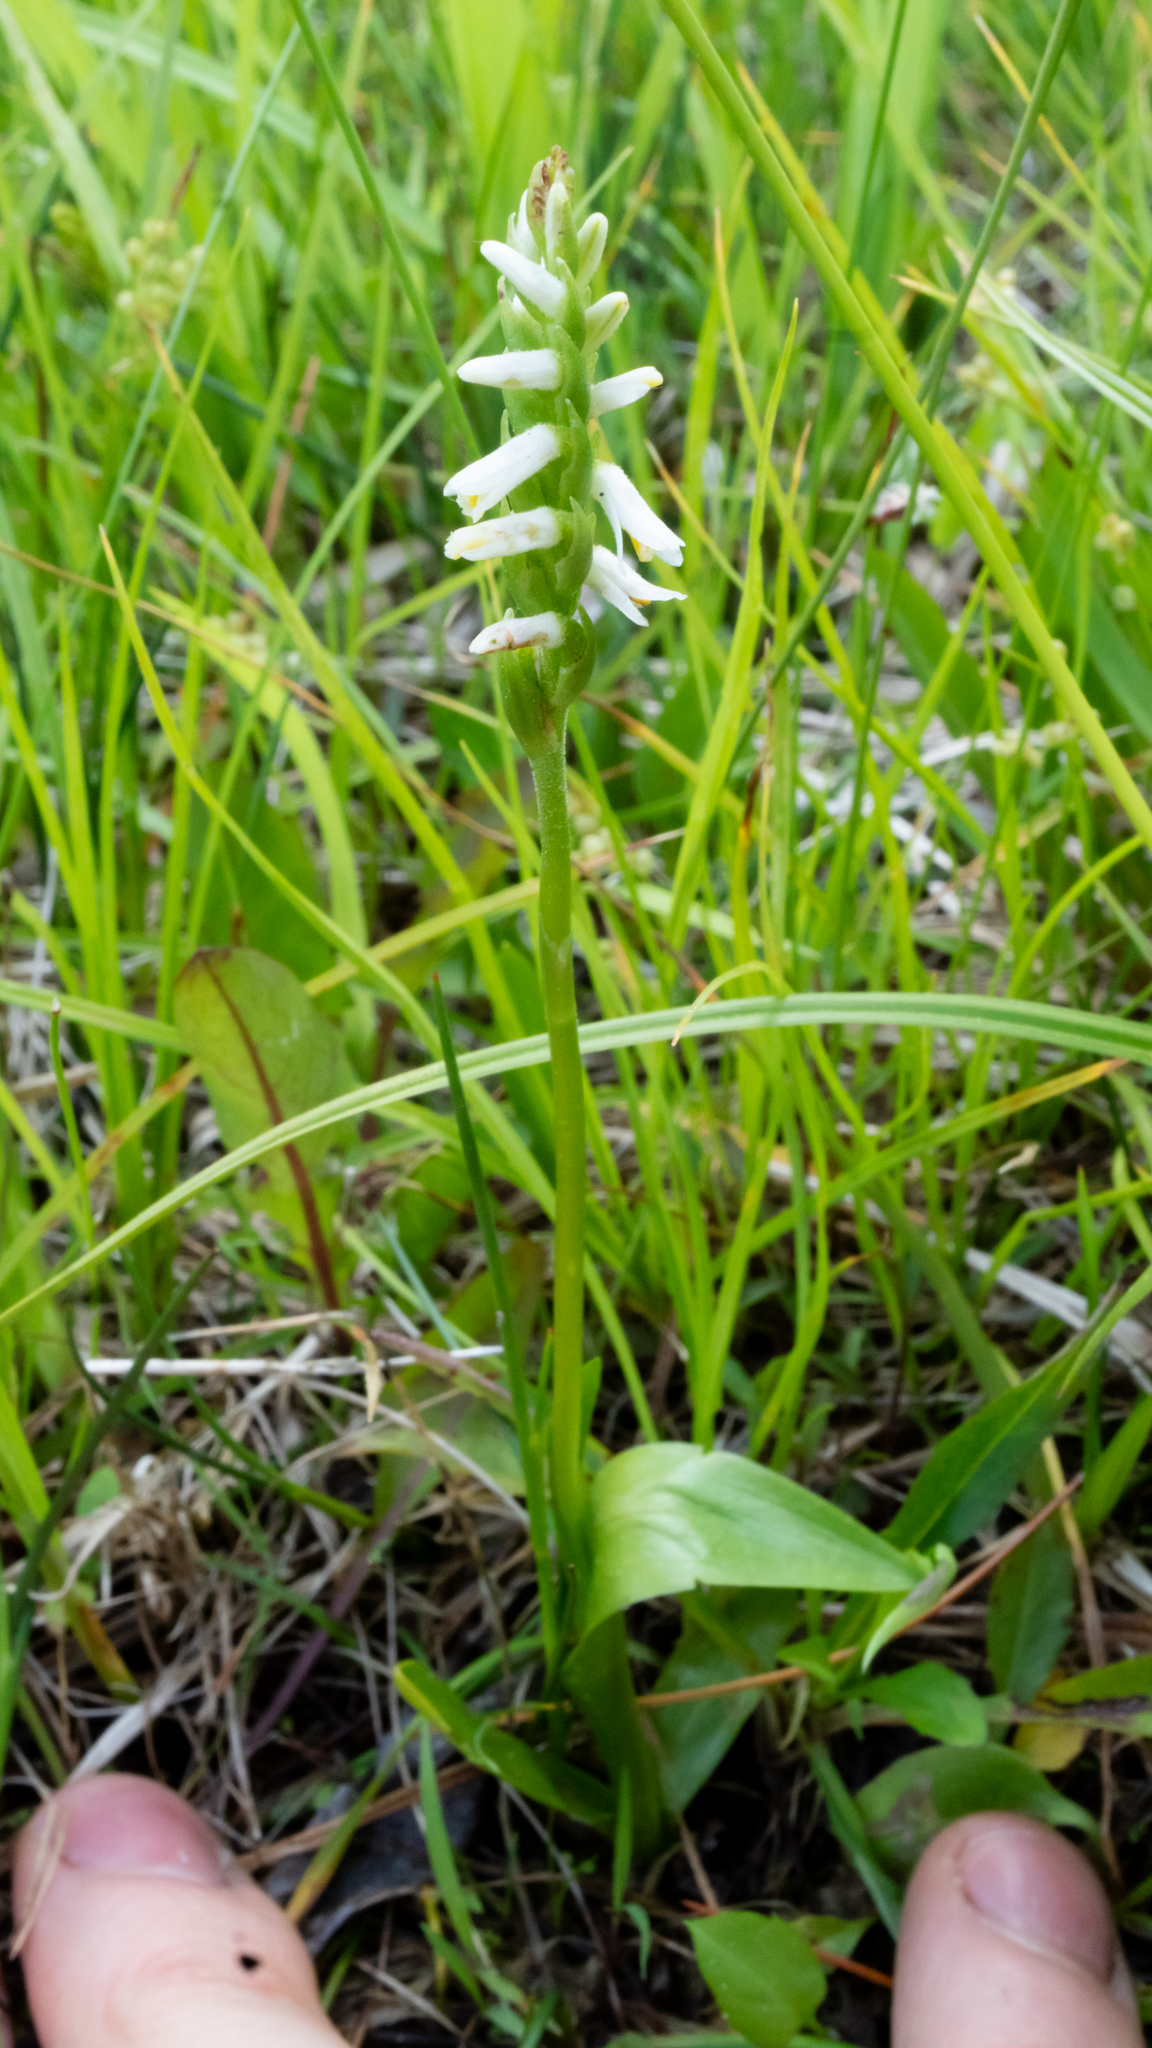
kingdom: Plantae
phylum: Tracheophyta
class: Liliopsida
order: Asparagales
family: Orchidaceae
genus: Spiranthes
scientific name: Spiranthes lucida
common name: Broad-leaved ladies'-tresses
